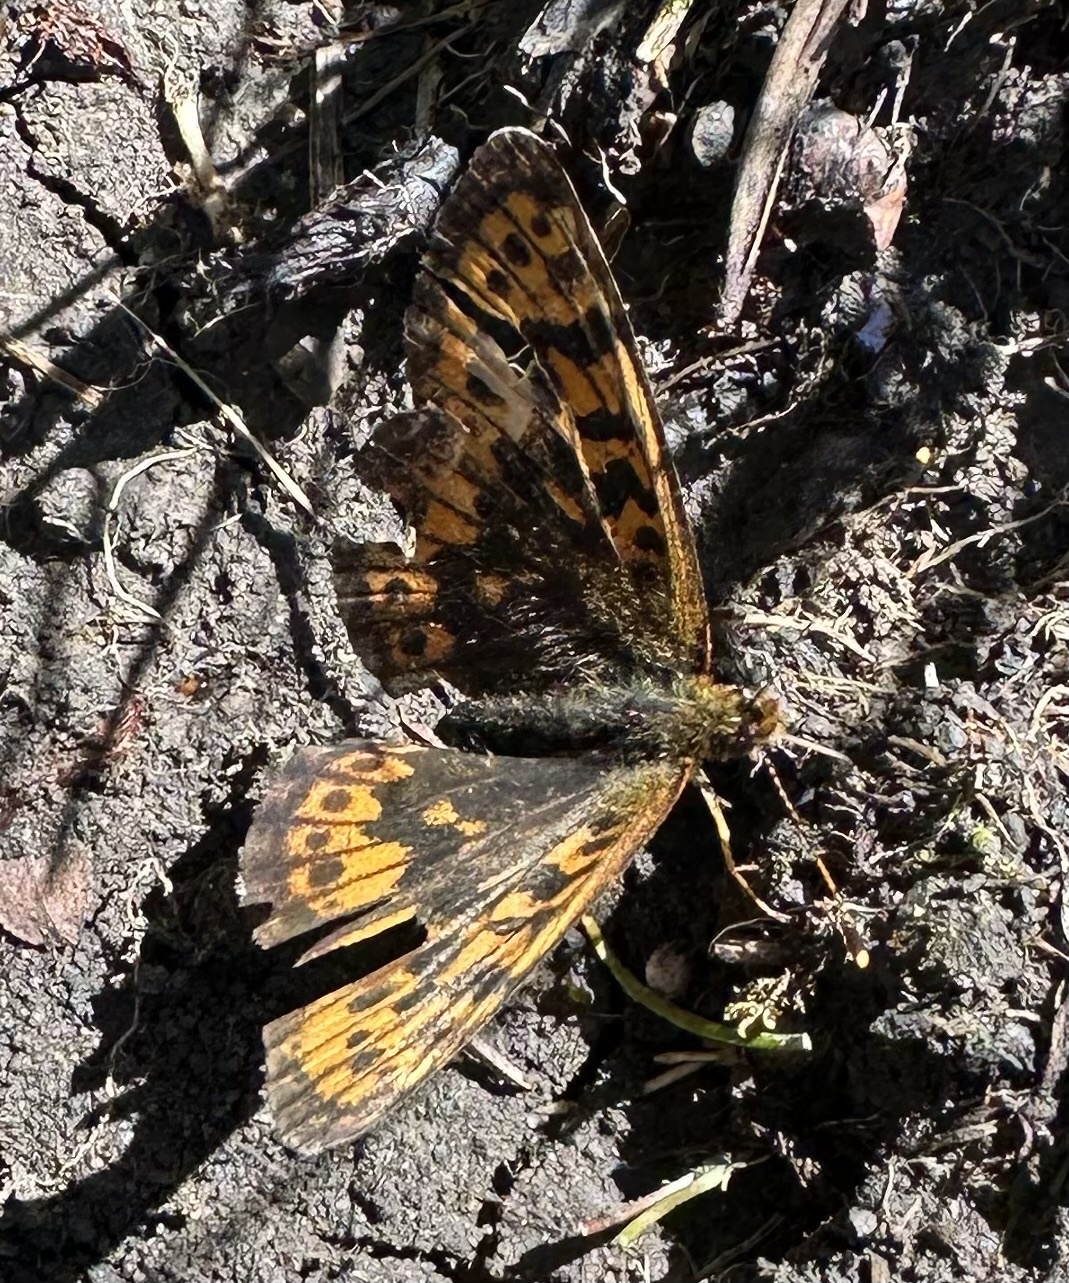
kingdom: Animalia
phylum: Arthropoda
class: Insecta
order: Lepidoptera
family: Nymphalidae
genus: Boloria
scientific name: Boloria thore
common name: Thor's fritillary
